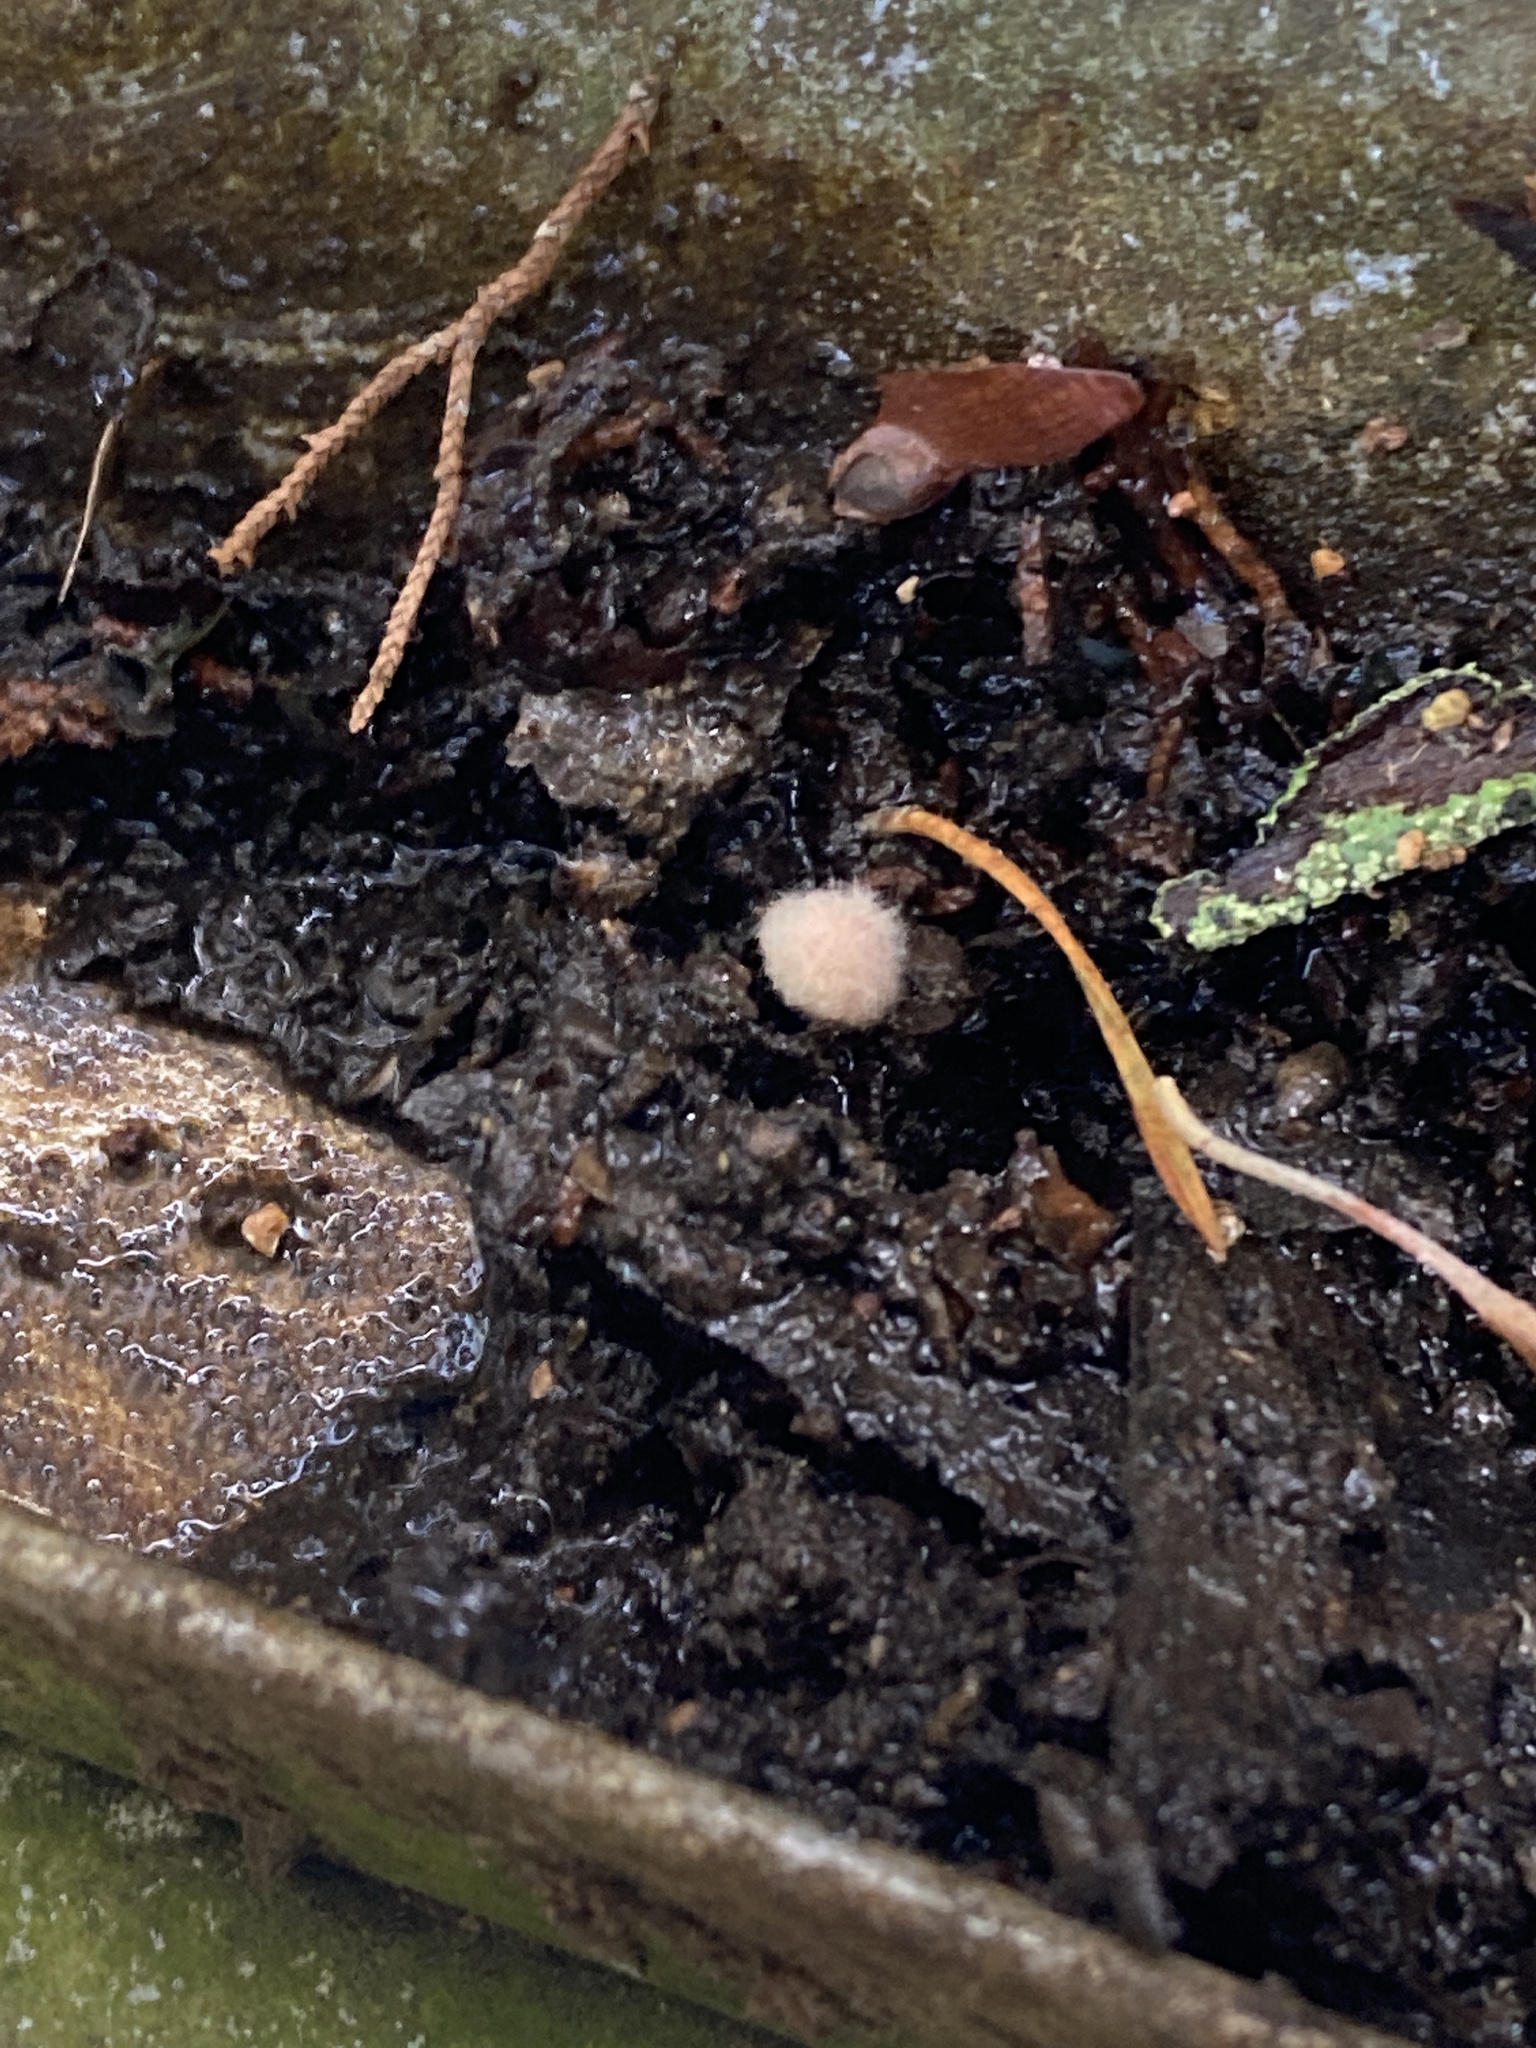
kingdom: Animalia
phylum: Arthropoda
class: Insecta
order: Hymenoptera
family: Cynipidae
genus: Callirhytis
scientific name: Callirhytis
